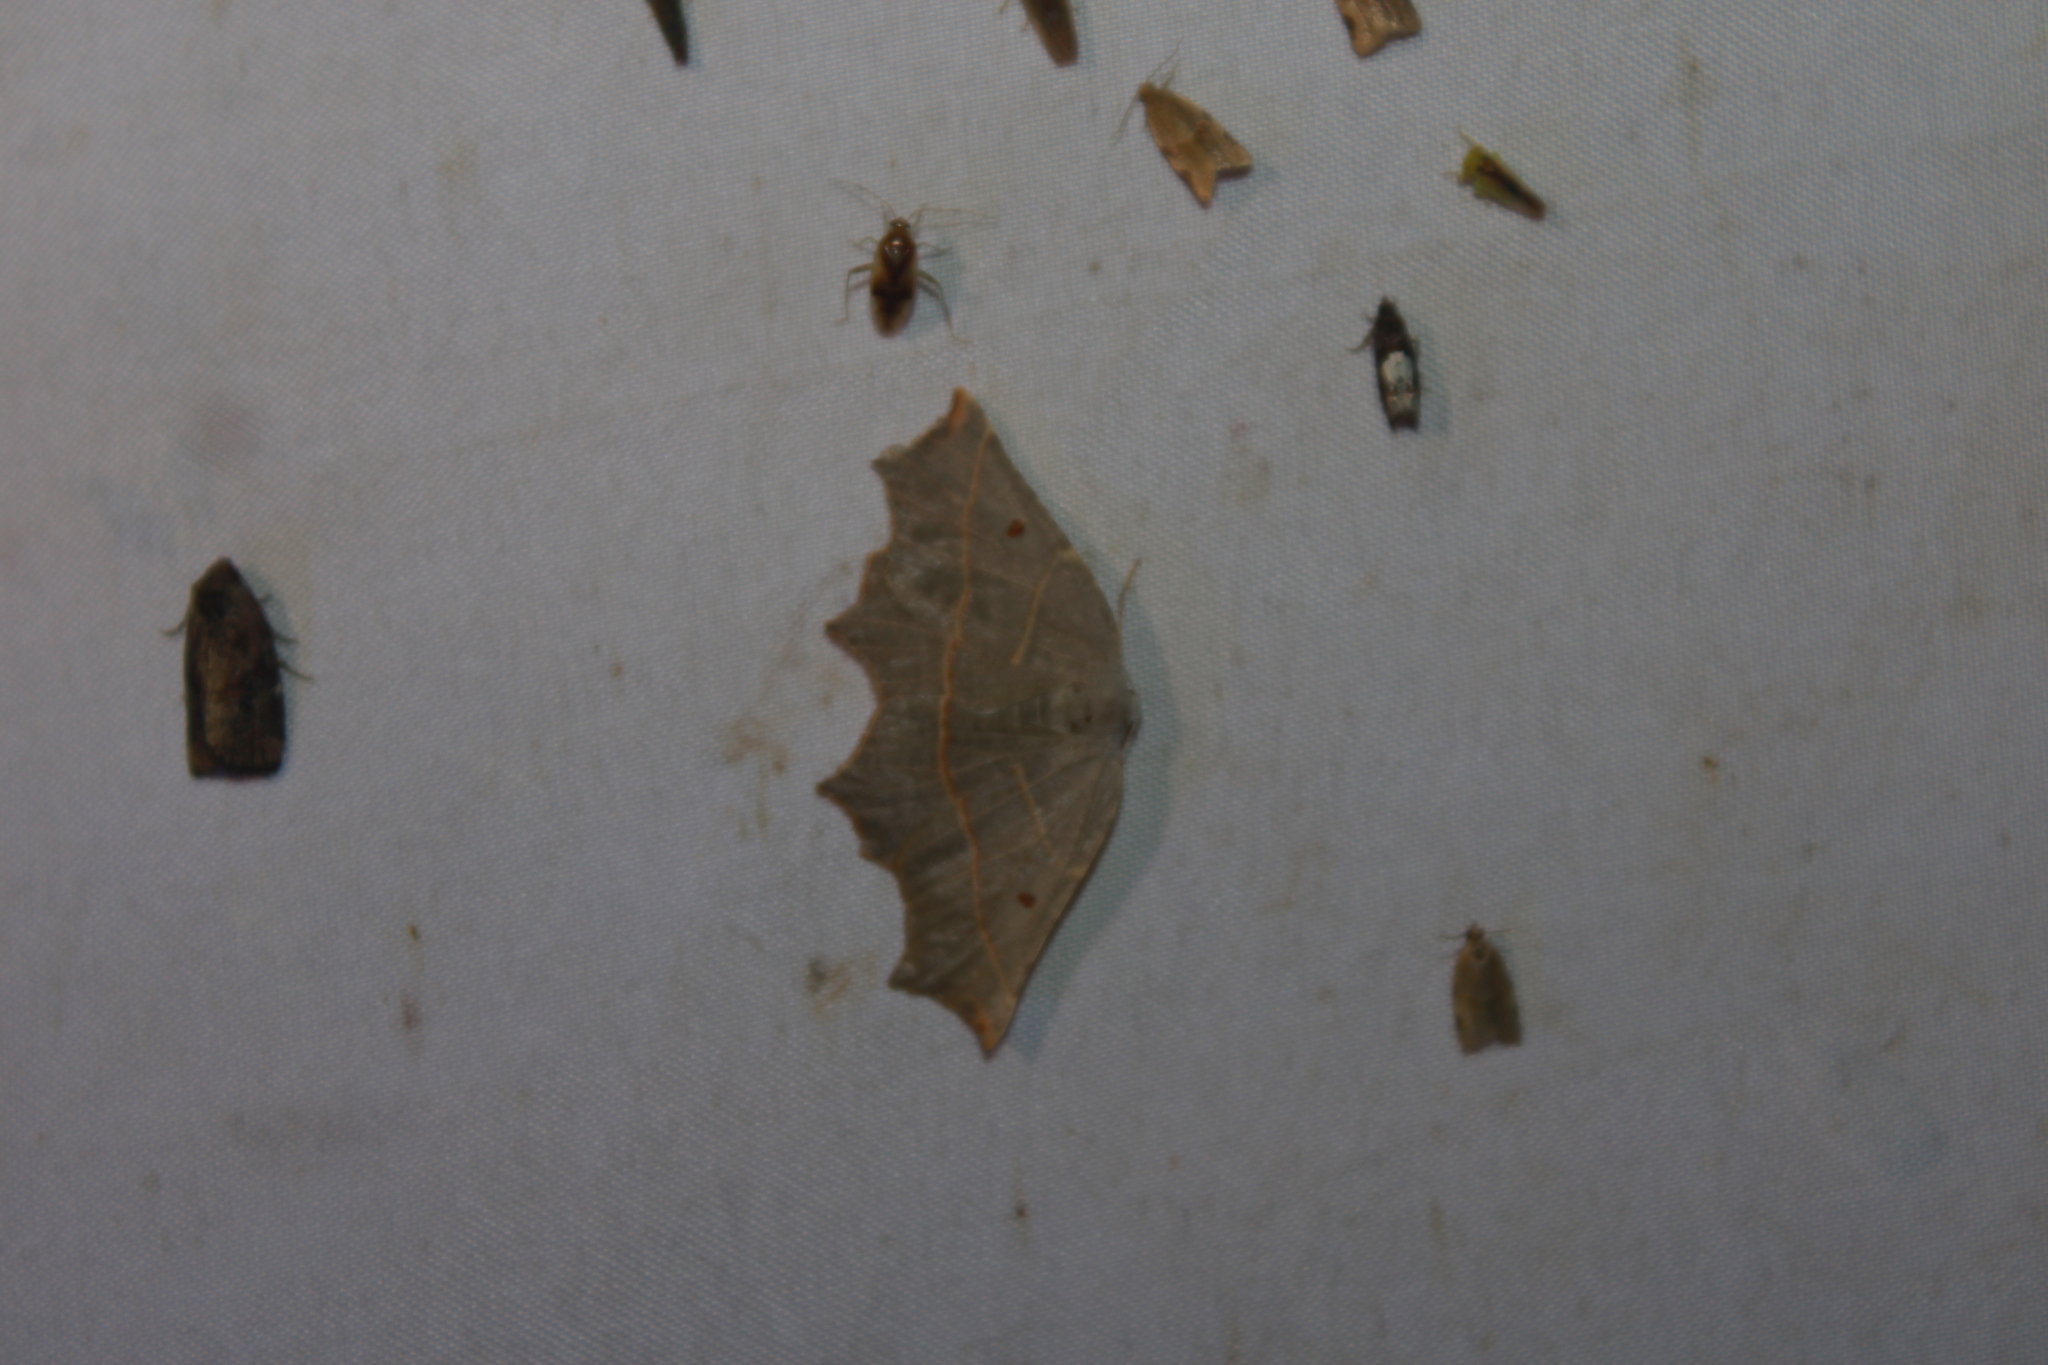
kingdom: Animalia
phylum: Arthropoda
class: Insecta
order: Lepidoptera
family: Geometridae
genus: Metanema
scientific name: Metanema inatomaria
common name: Pale metanema
